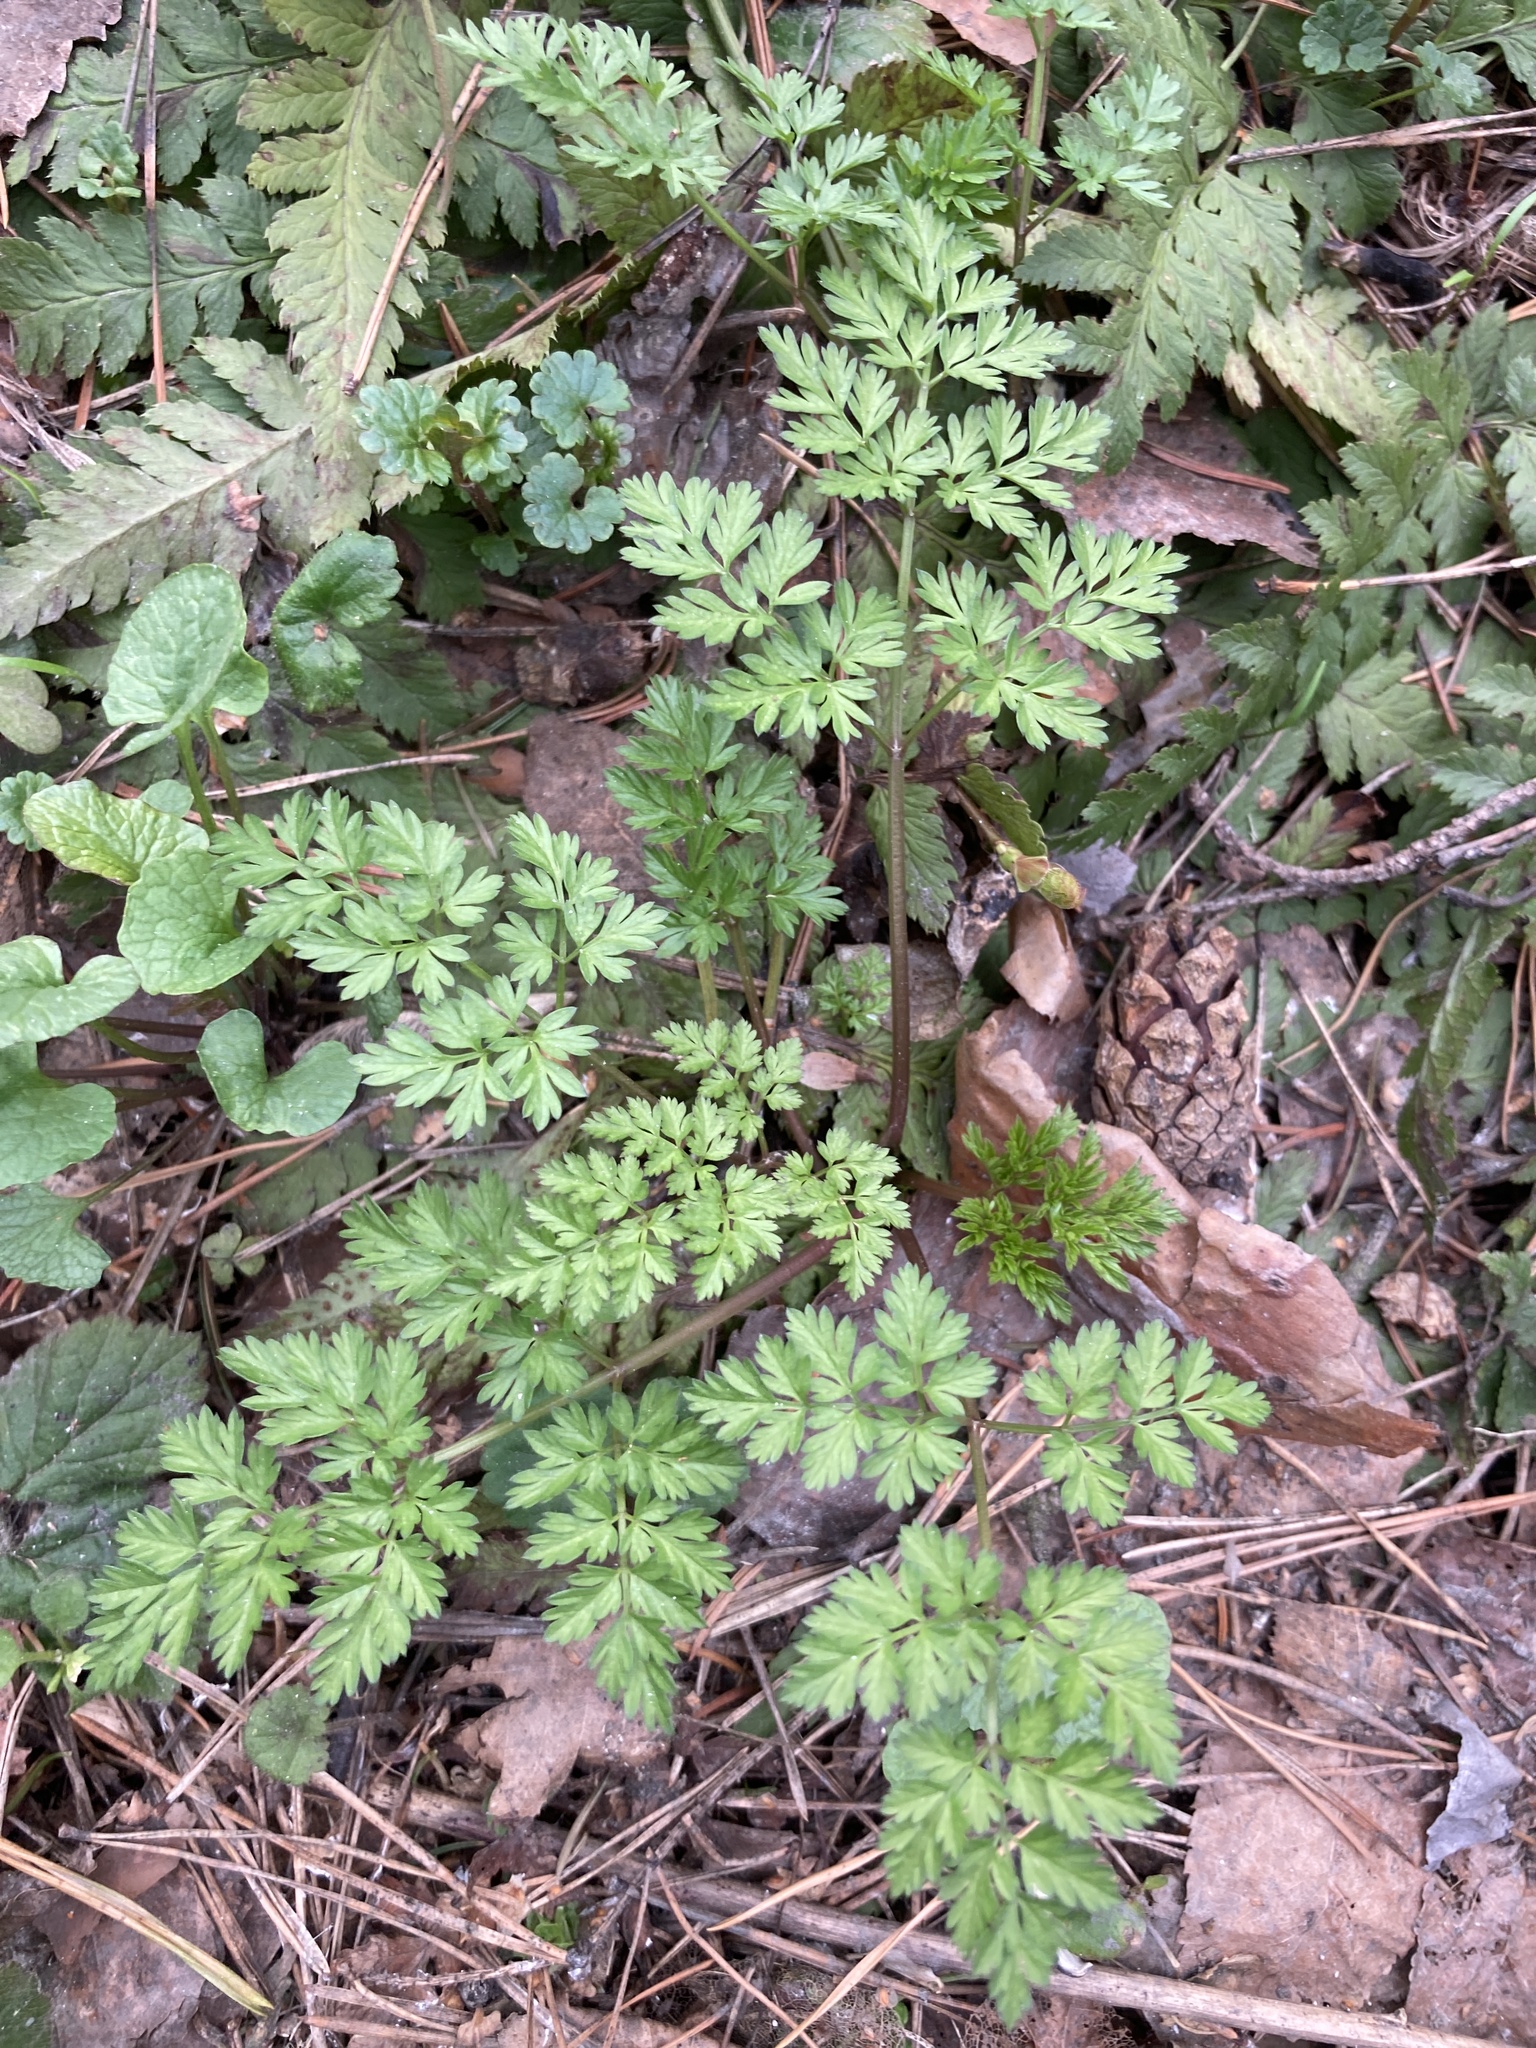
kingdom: Plantae
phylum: Tracheophyta
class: Magnoliopsida
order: Apiales
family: Apiaceae
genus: Anthriscus
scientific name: Anthriscus sylvestris
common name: Cow parsley
